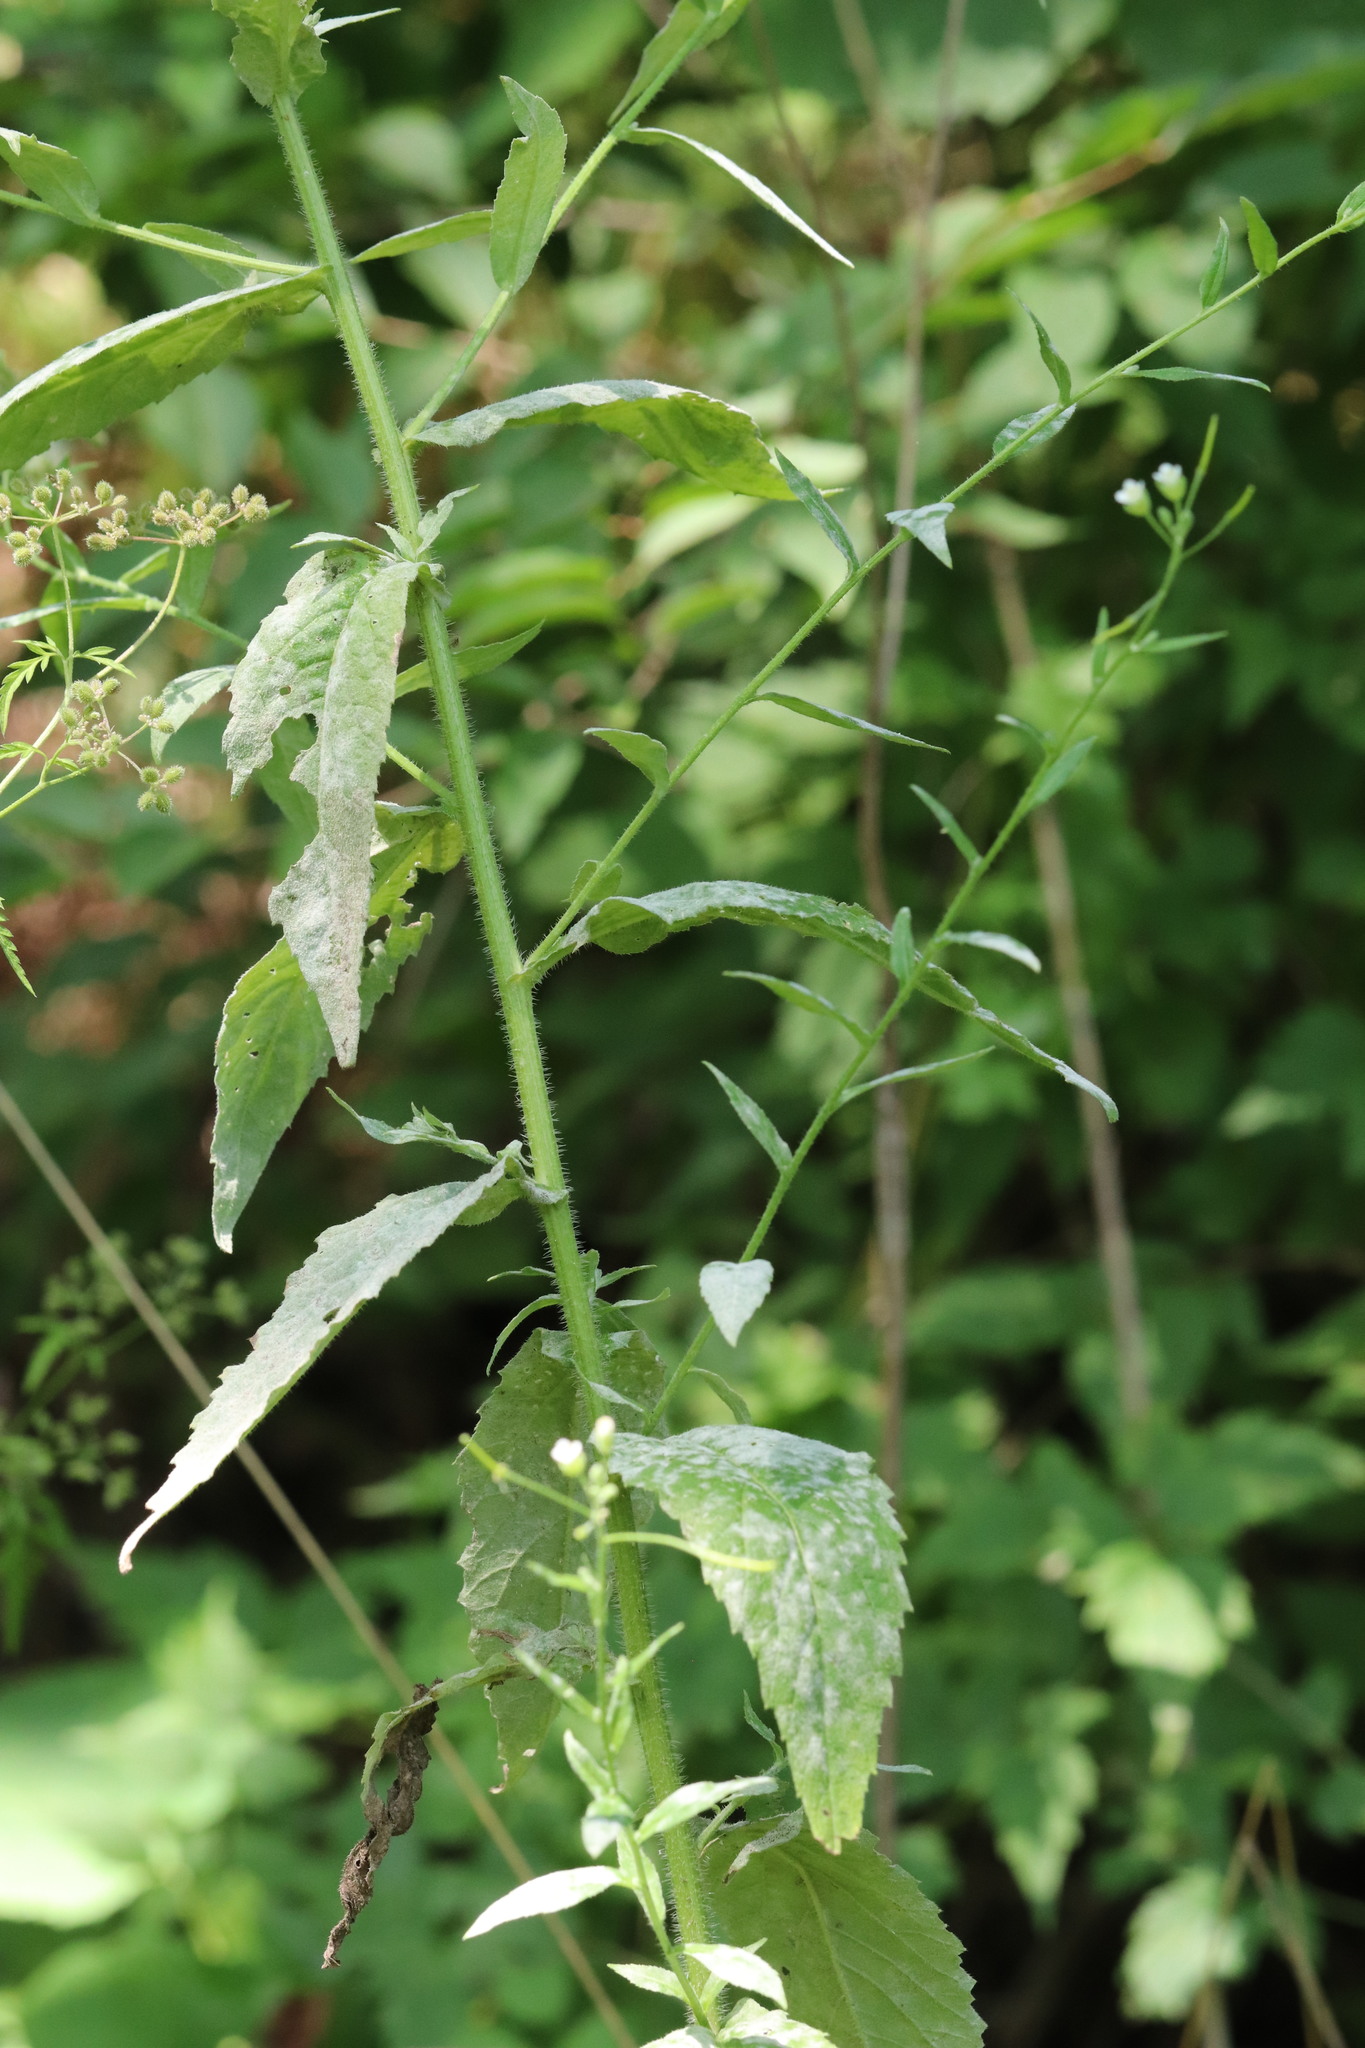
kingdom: Plantae
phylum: Tracheophyta
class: Magnoliopsida
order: Brassicales
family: Brassicaceae
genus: Catolobus
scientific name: Catolobus pendulus
